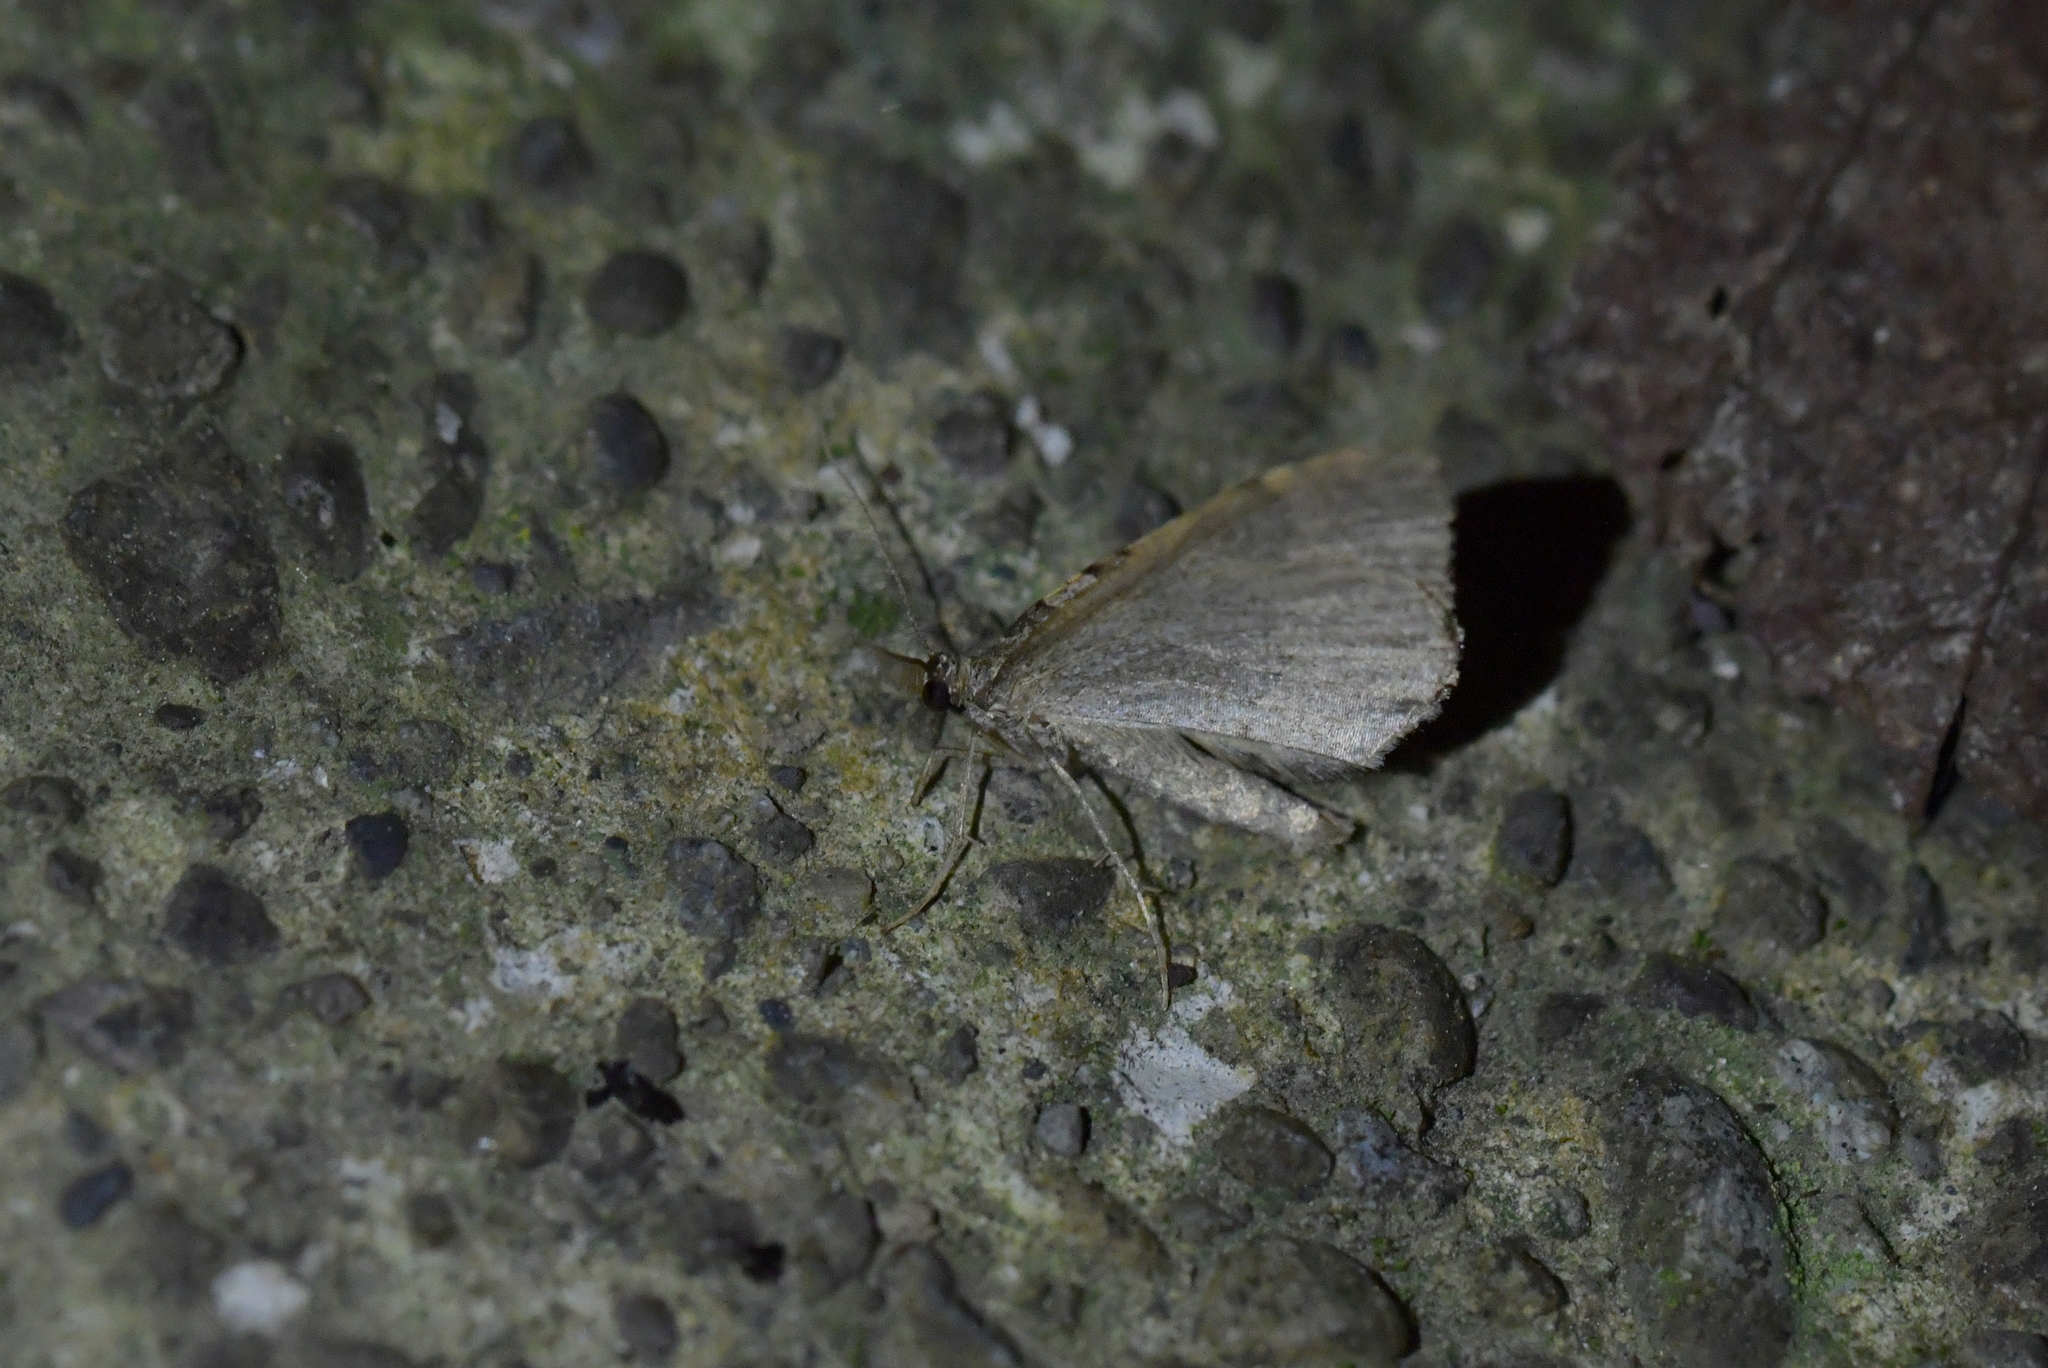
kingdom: Animalia
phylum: Arthropoda
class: Insecta
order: Lepidoptera
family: Geometridae
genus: Epyaxa
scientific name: Epyaxa rosearia
